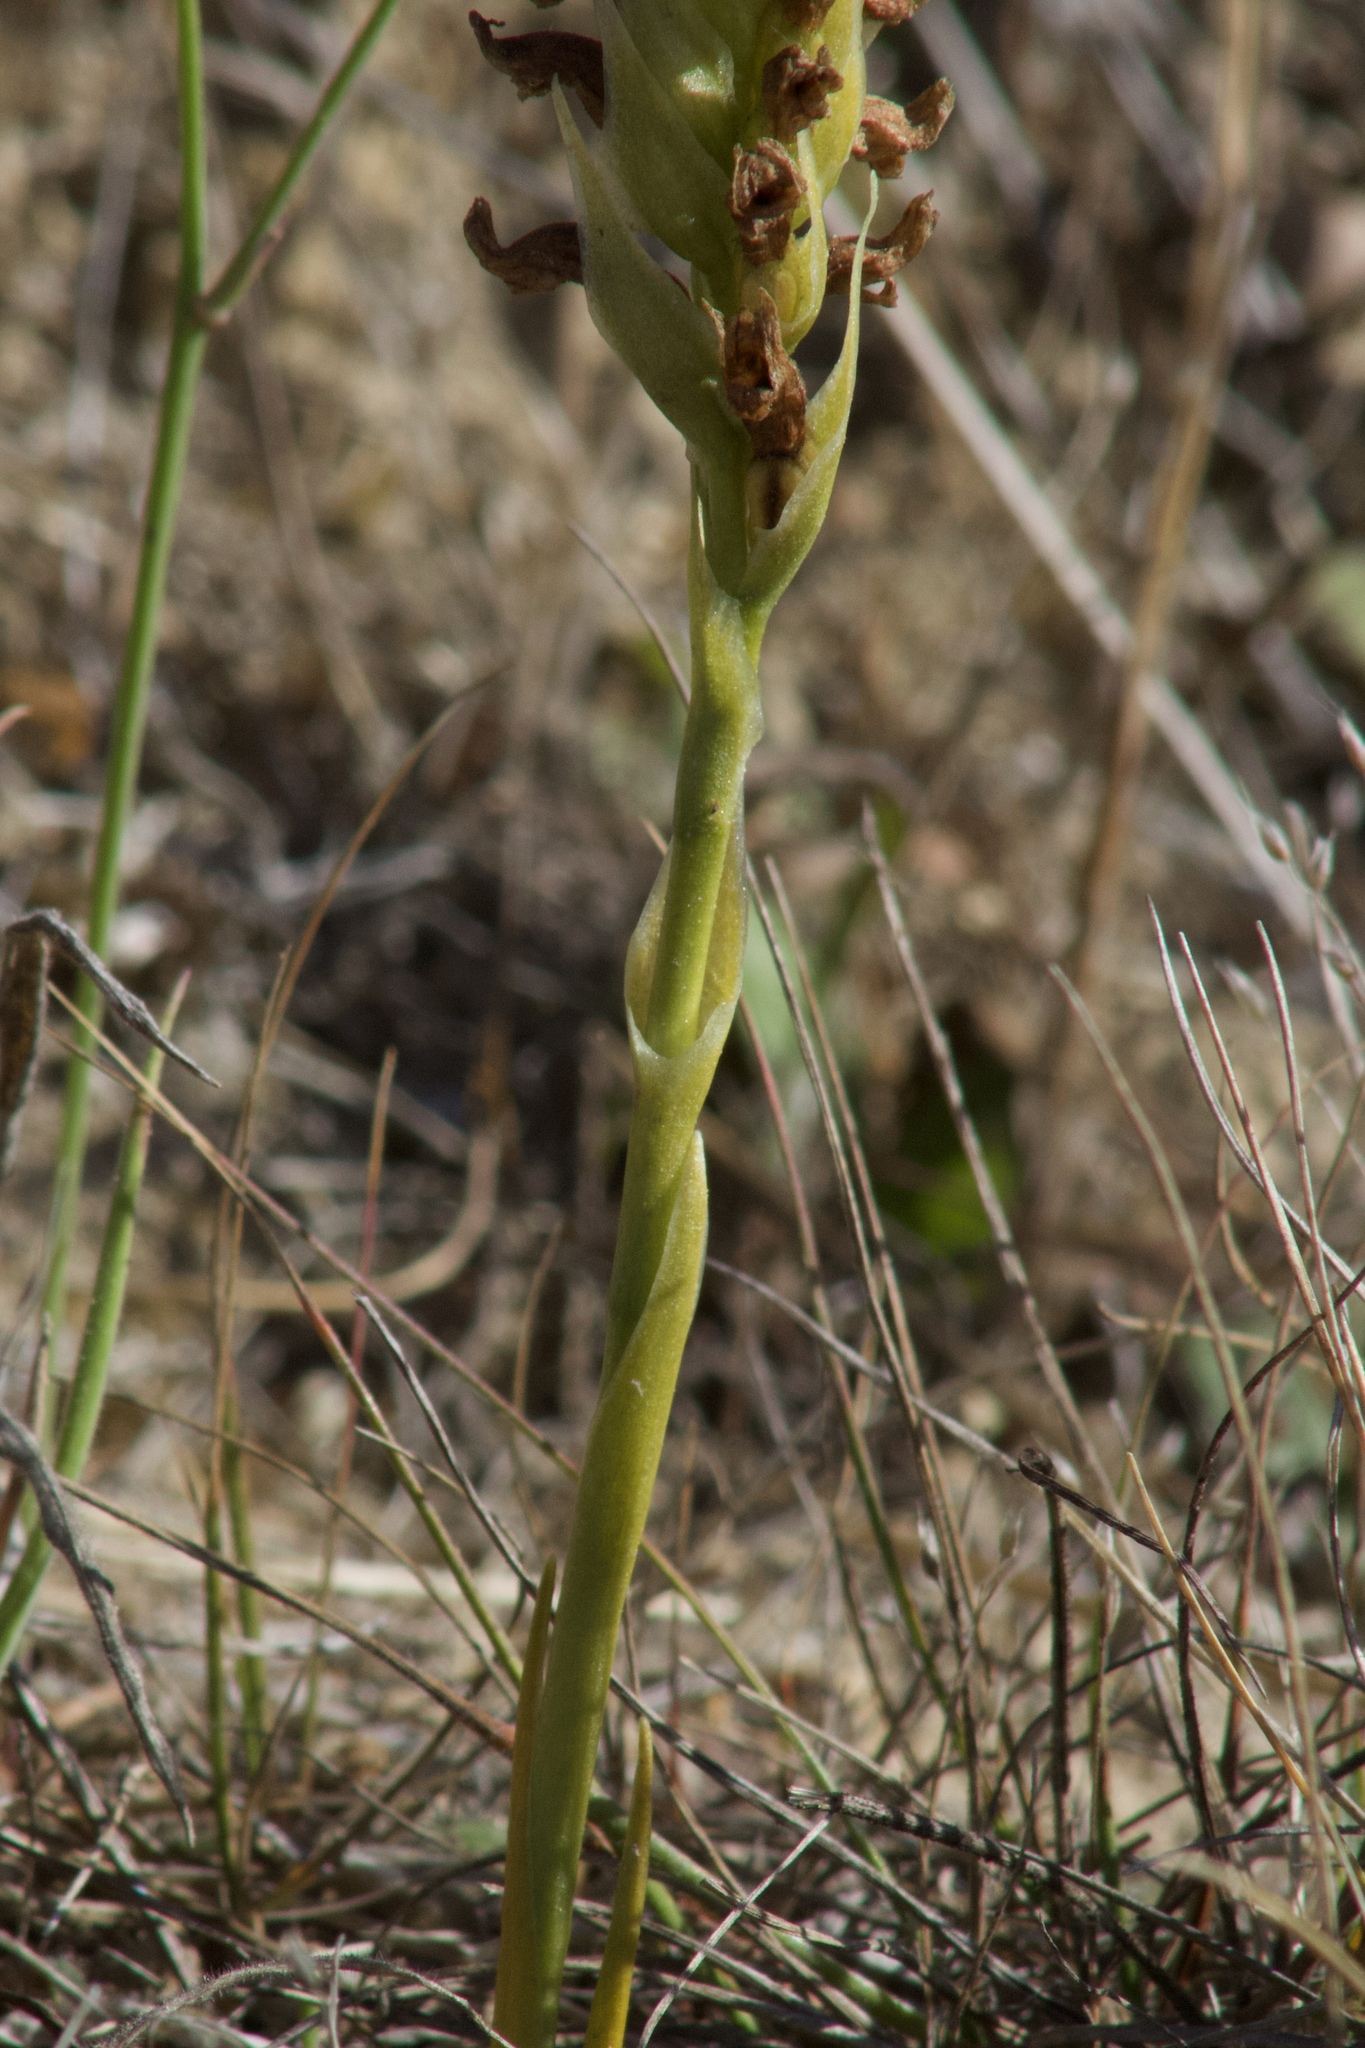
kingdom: Plantae
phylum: Tracheophyta
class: Liliopsida
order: Asparagales
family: Orchidaceae
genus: Spiranthes
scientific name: Spiranthes romanzoffiana
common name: Irish lady's-tresses
